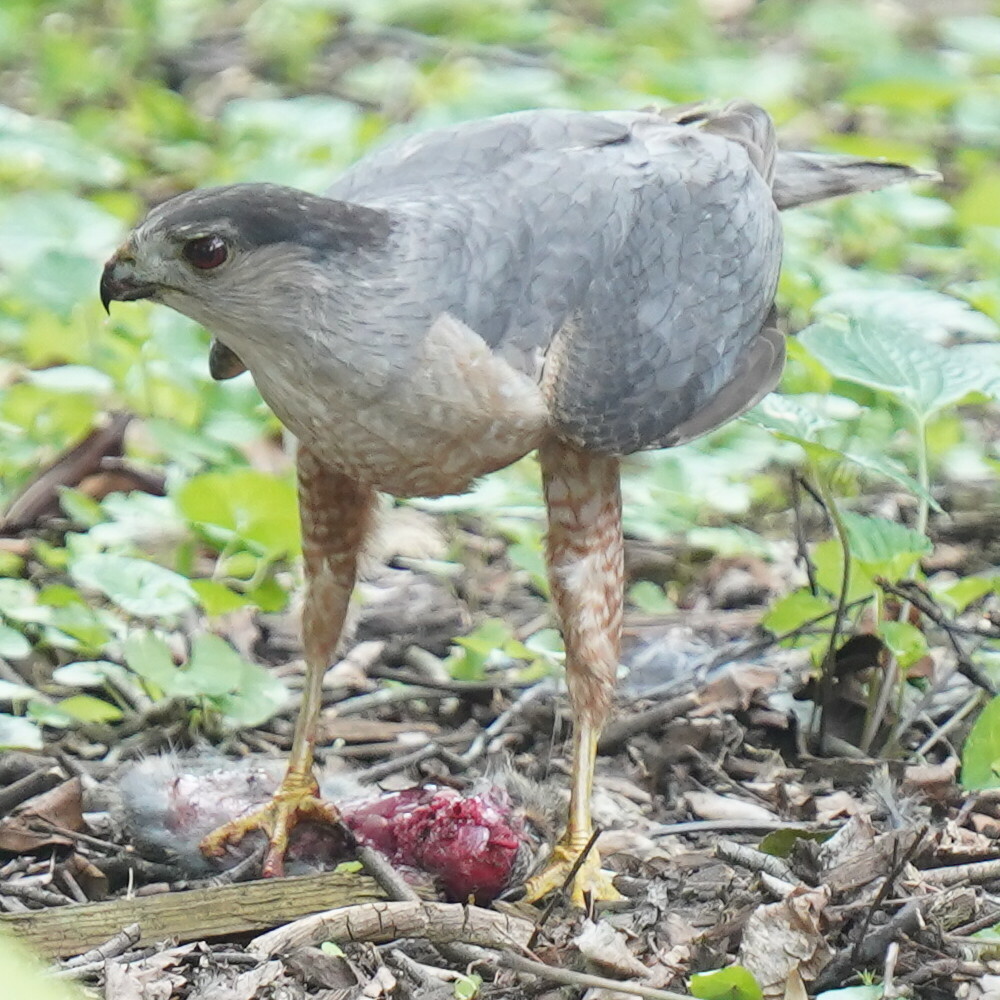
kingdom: Animalia
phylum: Chordata
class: Aves
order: Accipitriformes
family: Accipitridae
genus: Accipiter
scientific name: Accipiter cooperii
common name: Cooper's hawk
